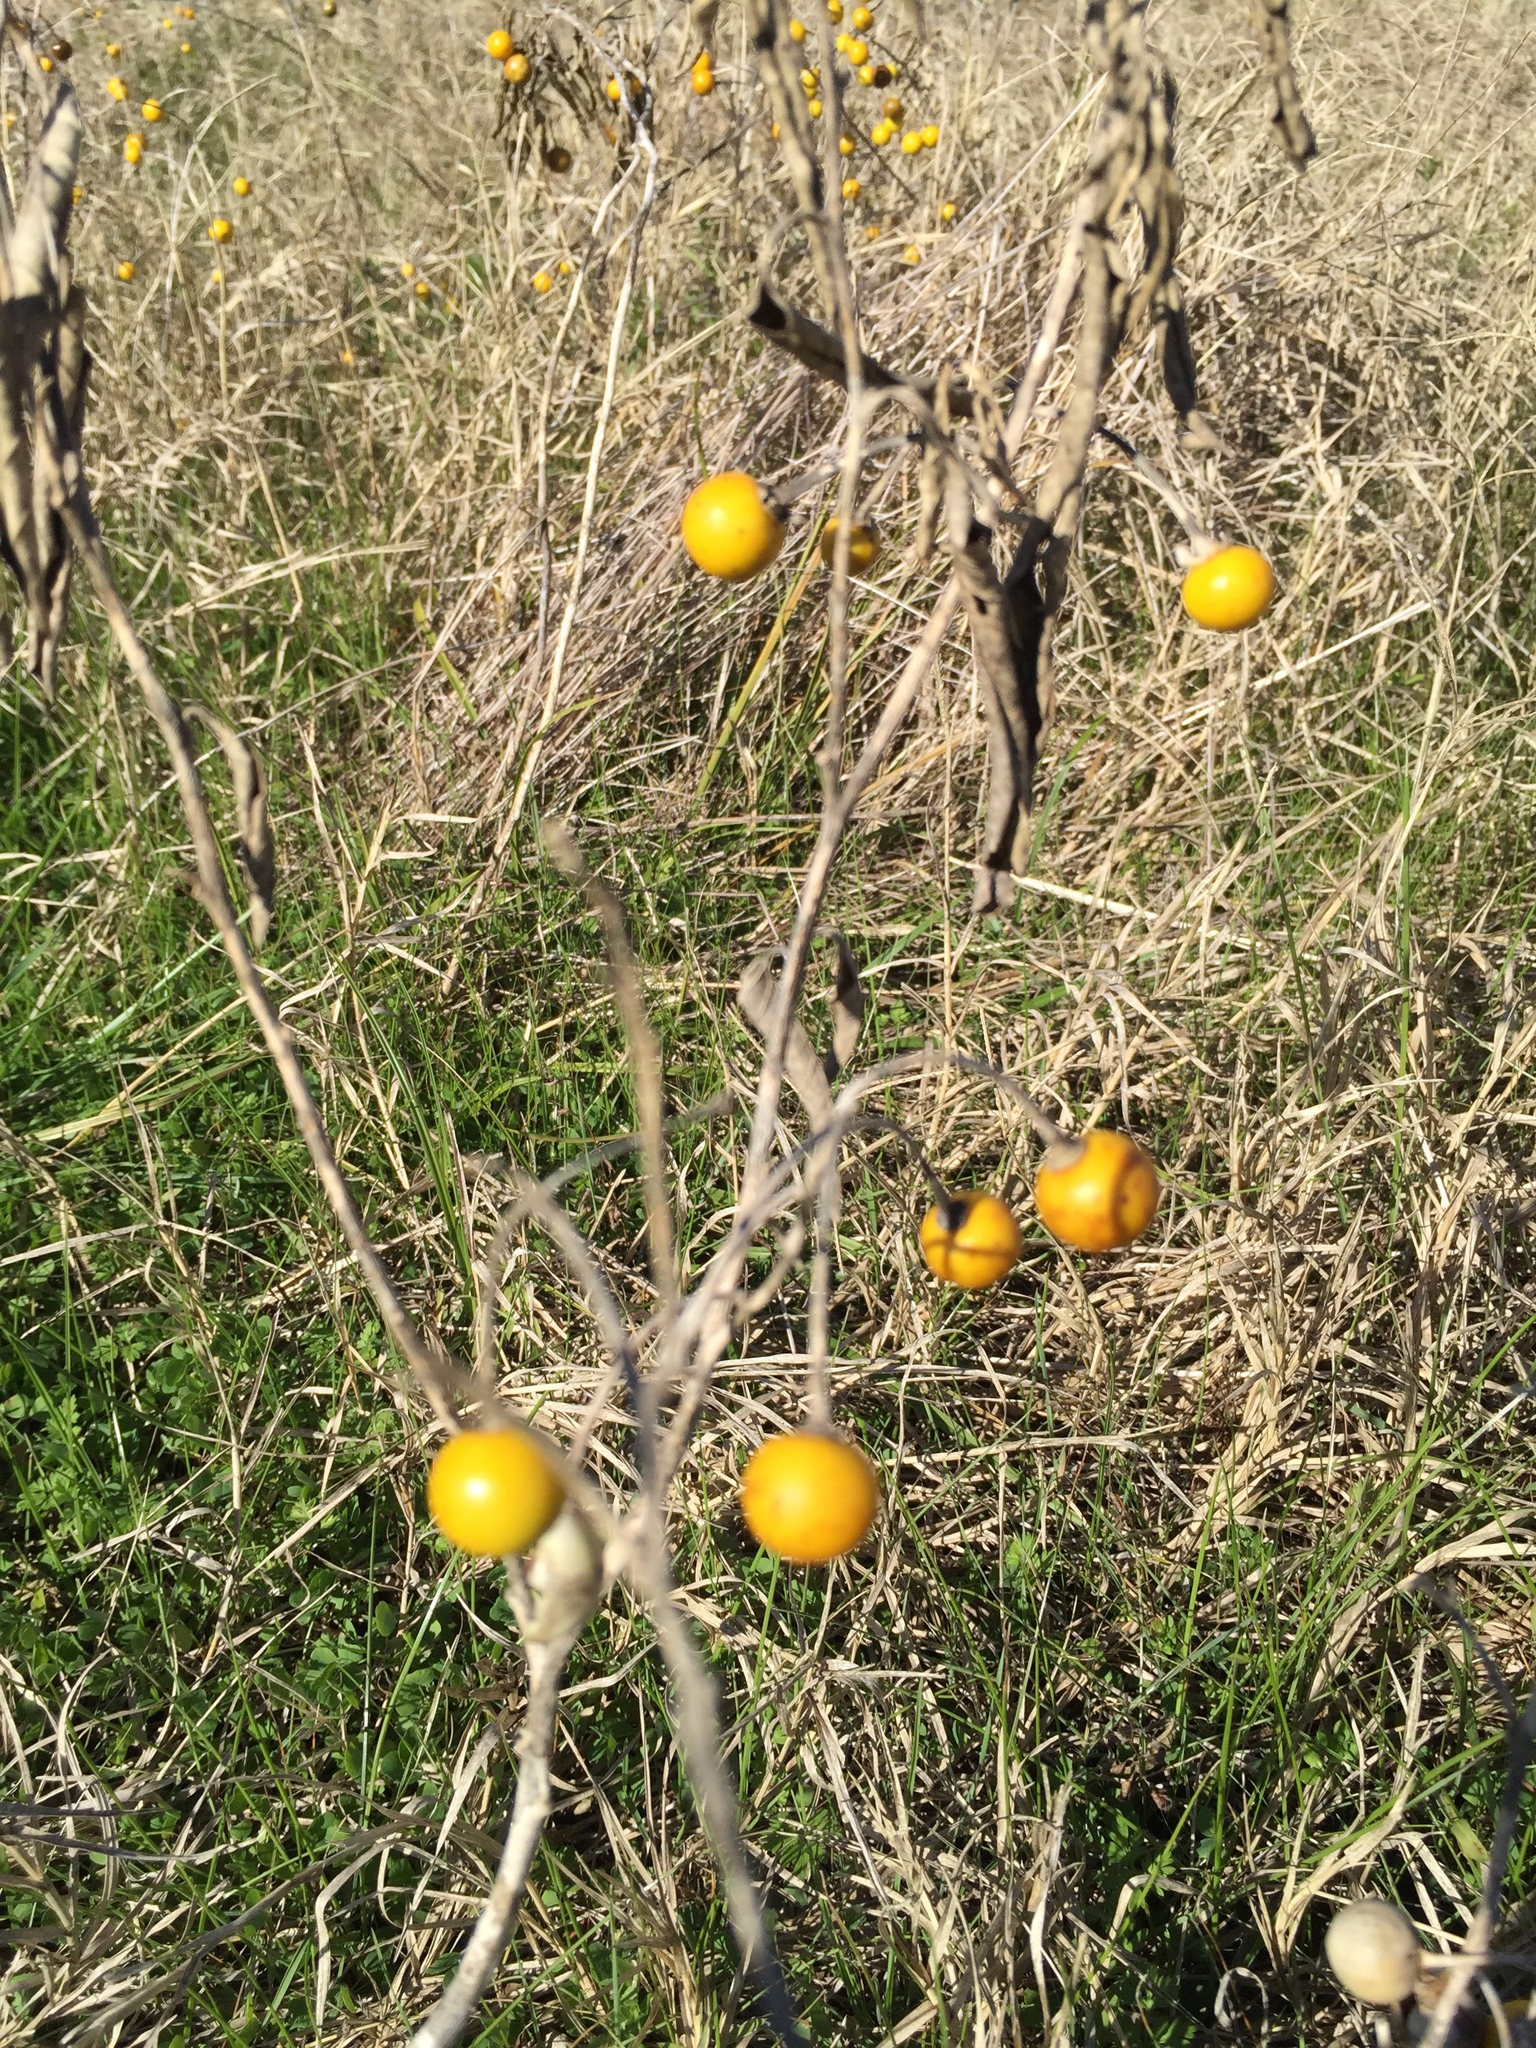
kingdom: Plantae
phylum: Tracheophyta
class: Magnoliopsida
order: Solanales
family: Solanaceae
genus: Solanum
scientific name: Solanum elaeagnifolium
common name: Silverleaf nightshade
